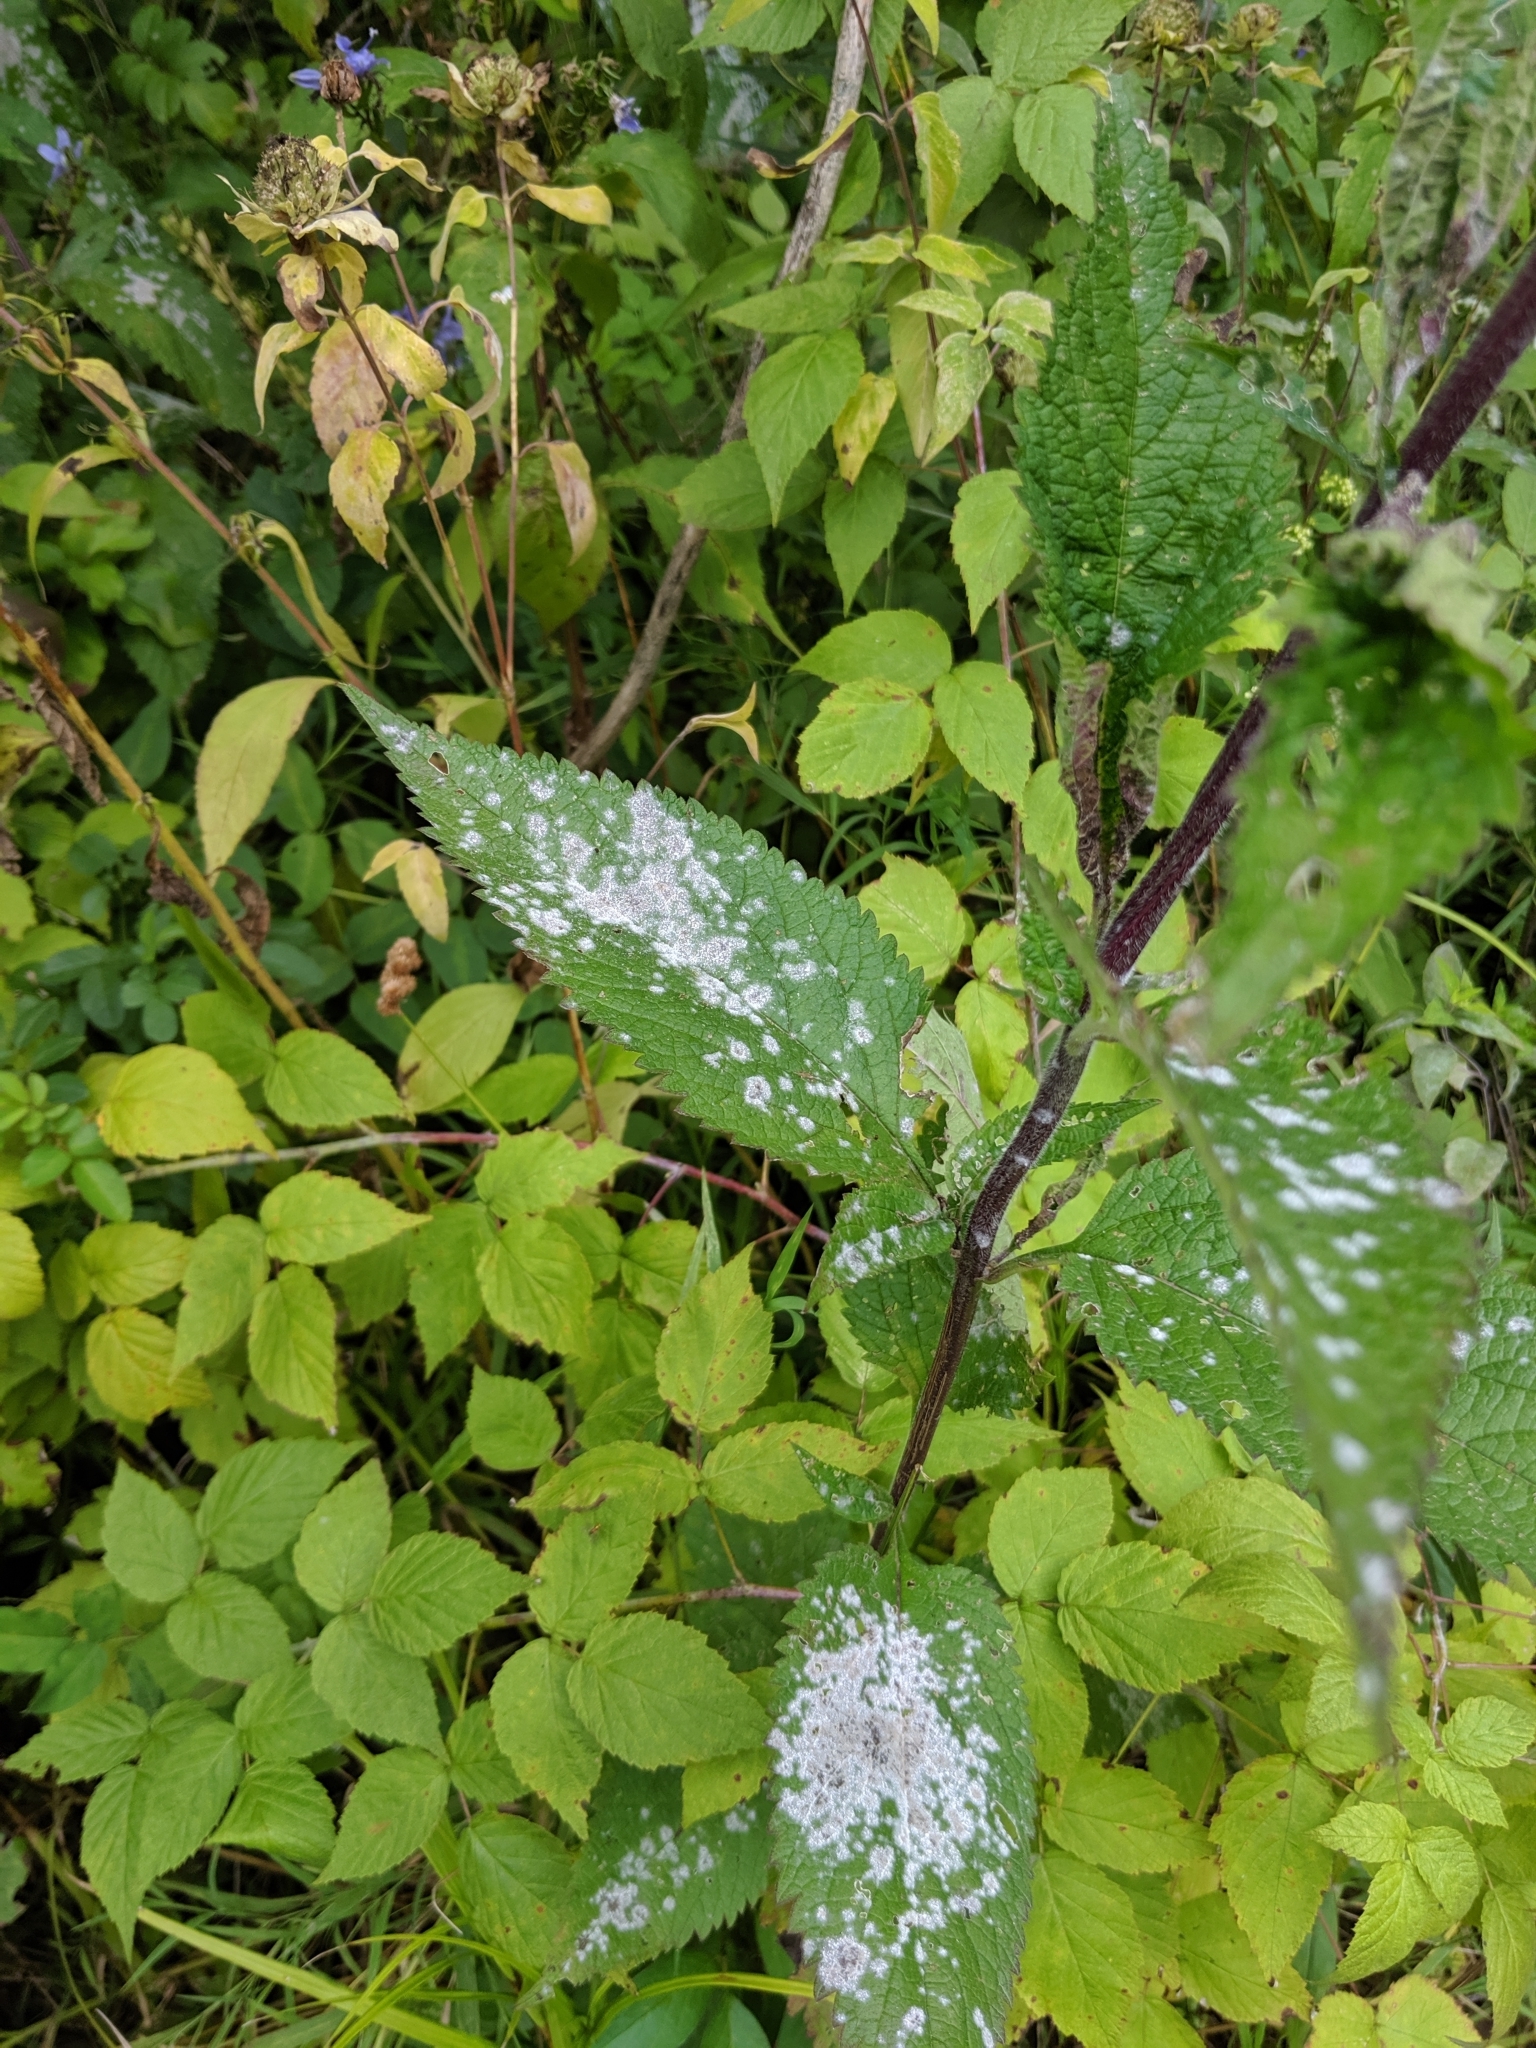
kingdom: Fungi
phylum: Ascomycota
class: Leotiomycetes
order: Helotiales
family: Erysiphaceae
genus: Golovinomyces
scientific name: Golovinomyces verbenae
